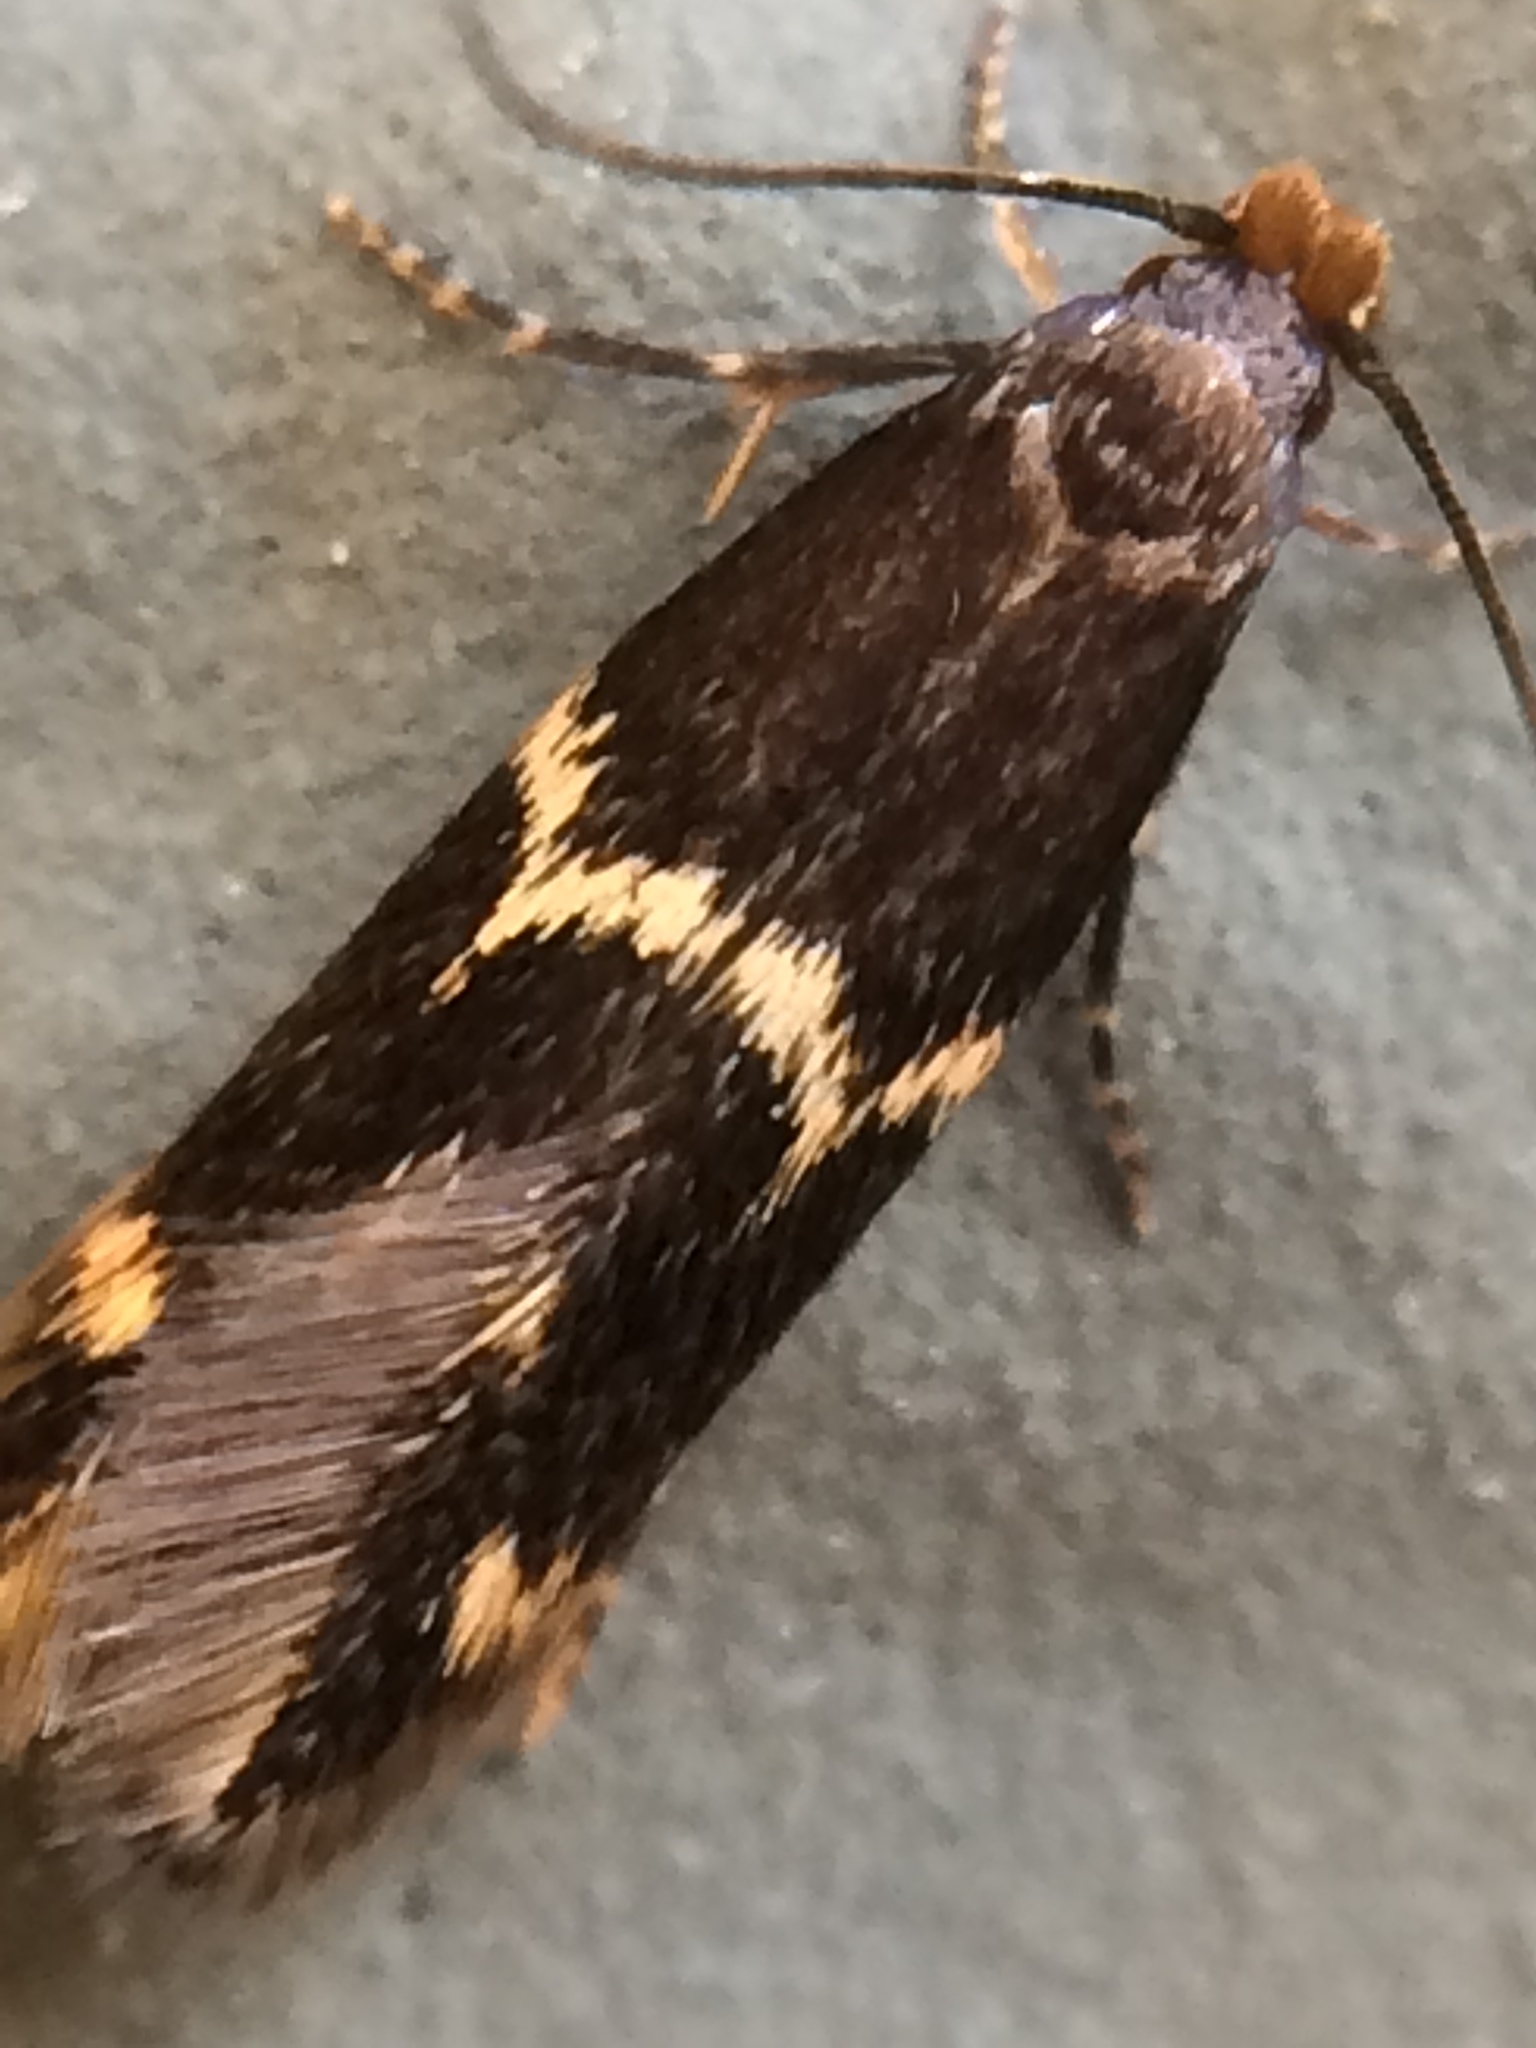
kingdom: Animalia
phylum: Arthropoda
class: Insecta
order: Lepidoptera
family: Tineidae
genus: Oinophila
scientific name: Oinophila v-flava
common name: Yellow v moth
